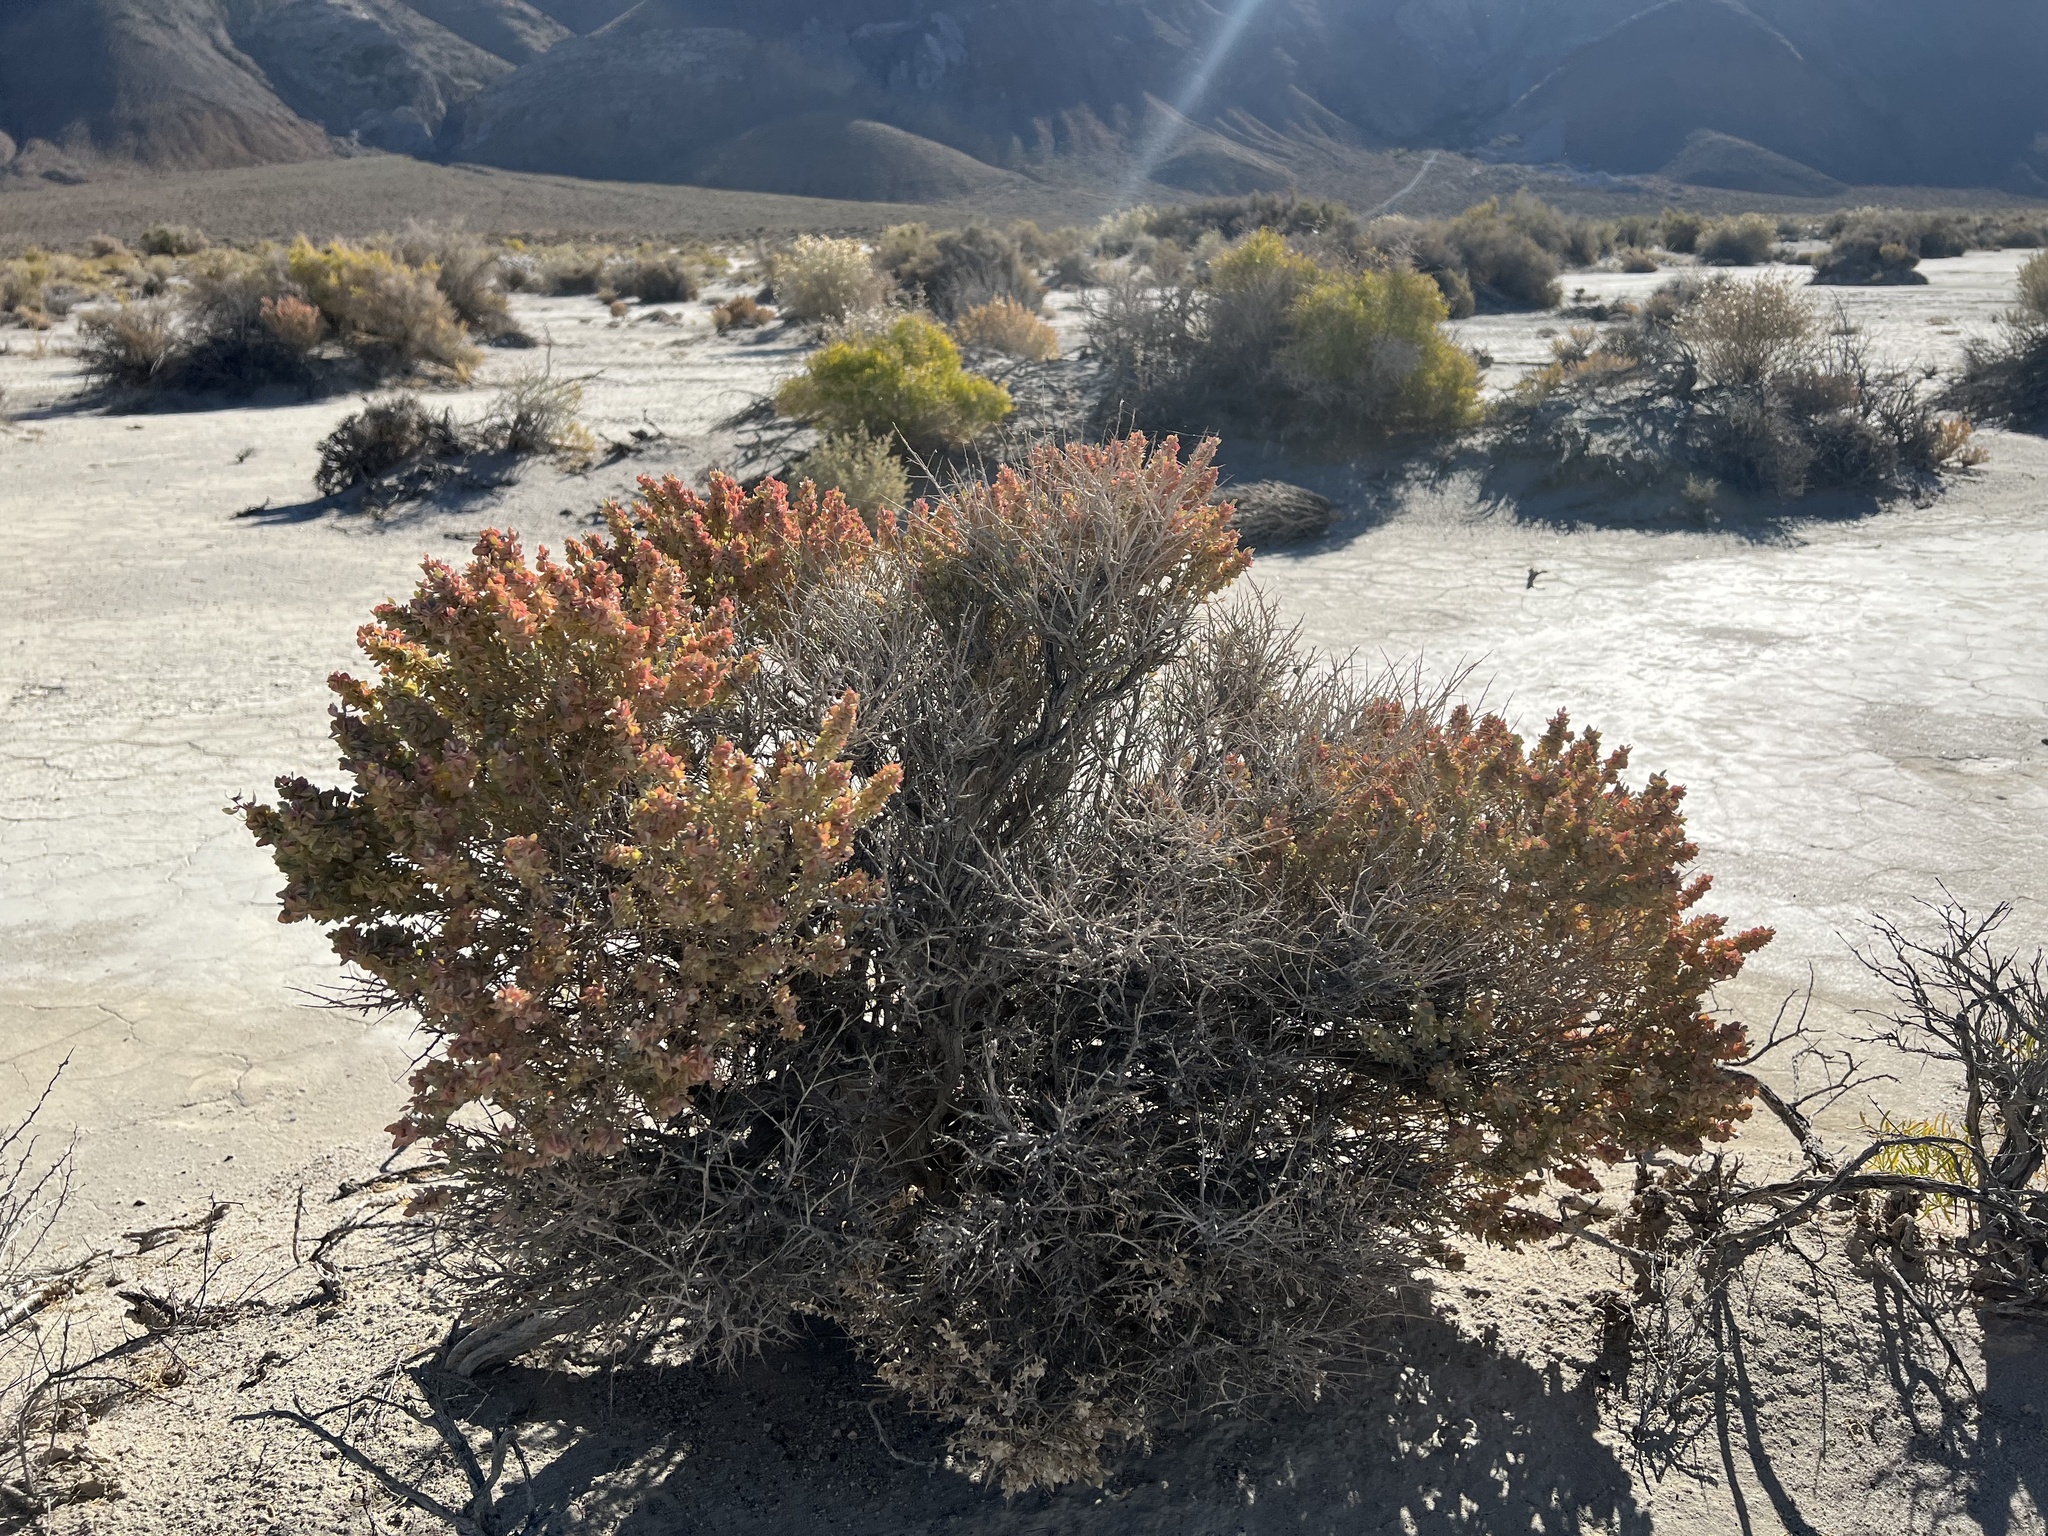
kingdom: Plantae
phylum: Tracheophyta
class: Magnoliopsida
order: Caryophyllales
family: Amaranthaceae
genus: Atriplex
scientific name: Atriplex confertifolia
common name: Shadscale
